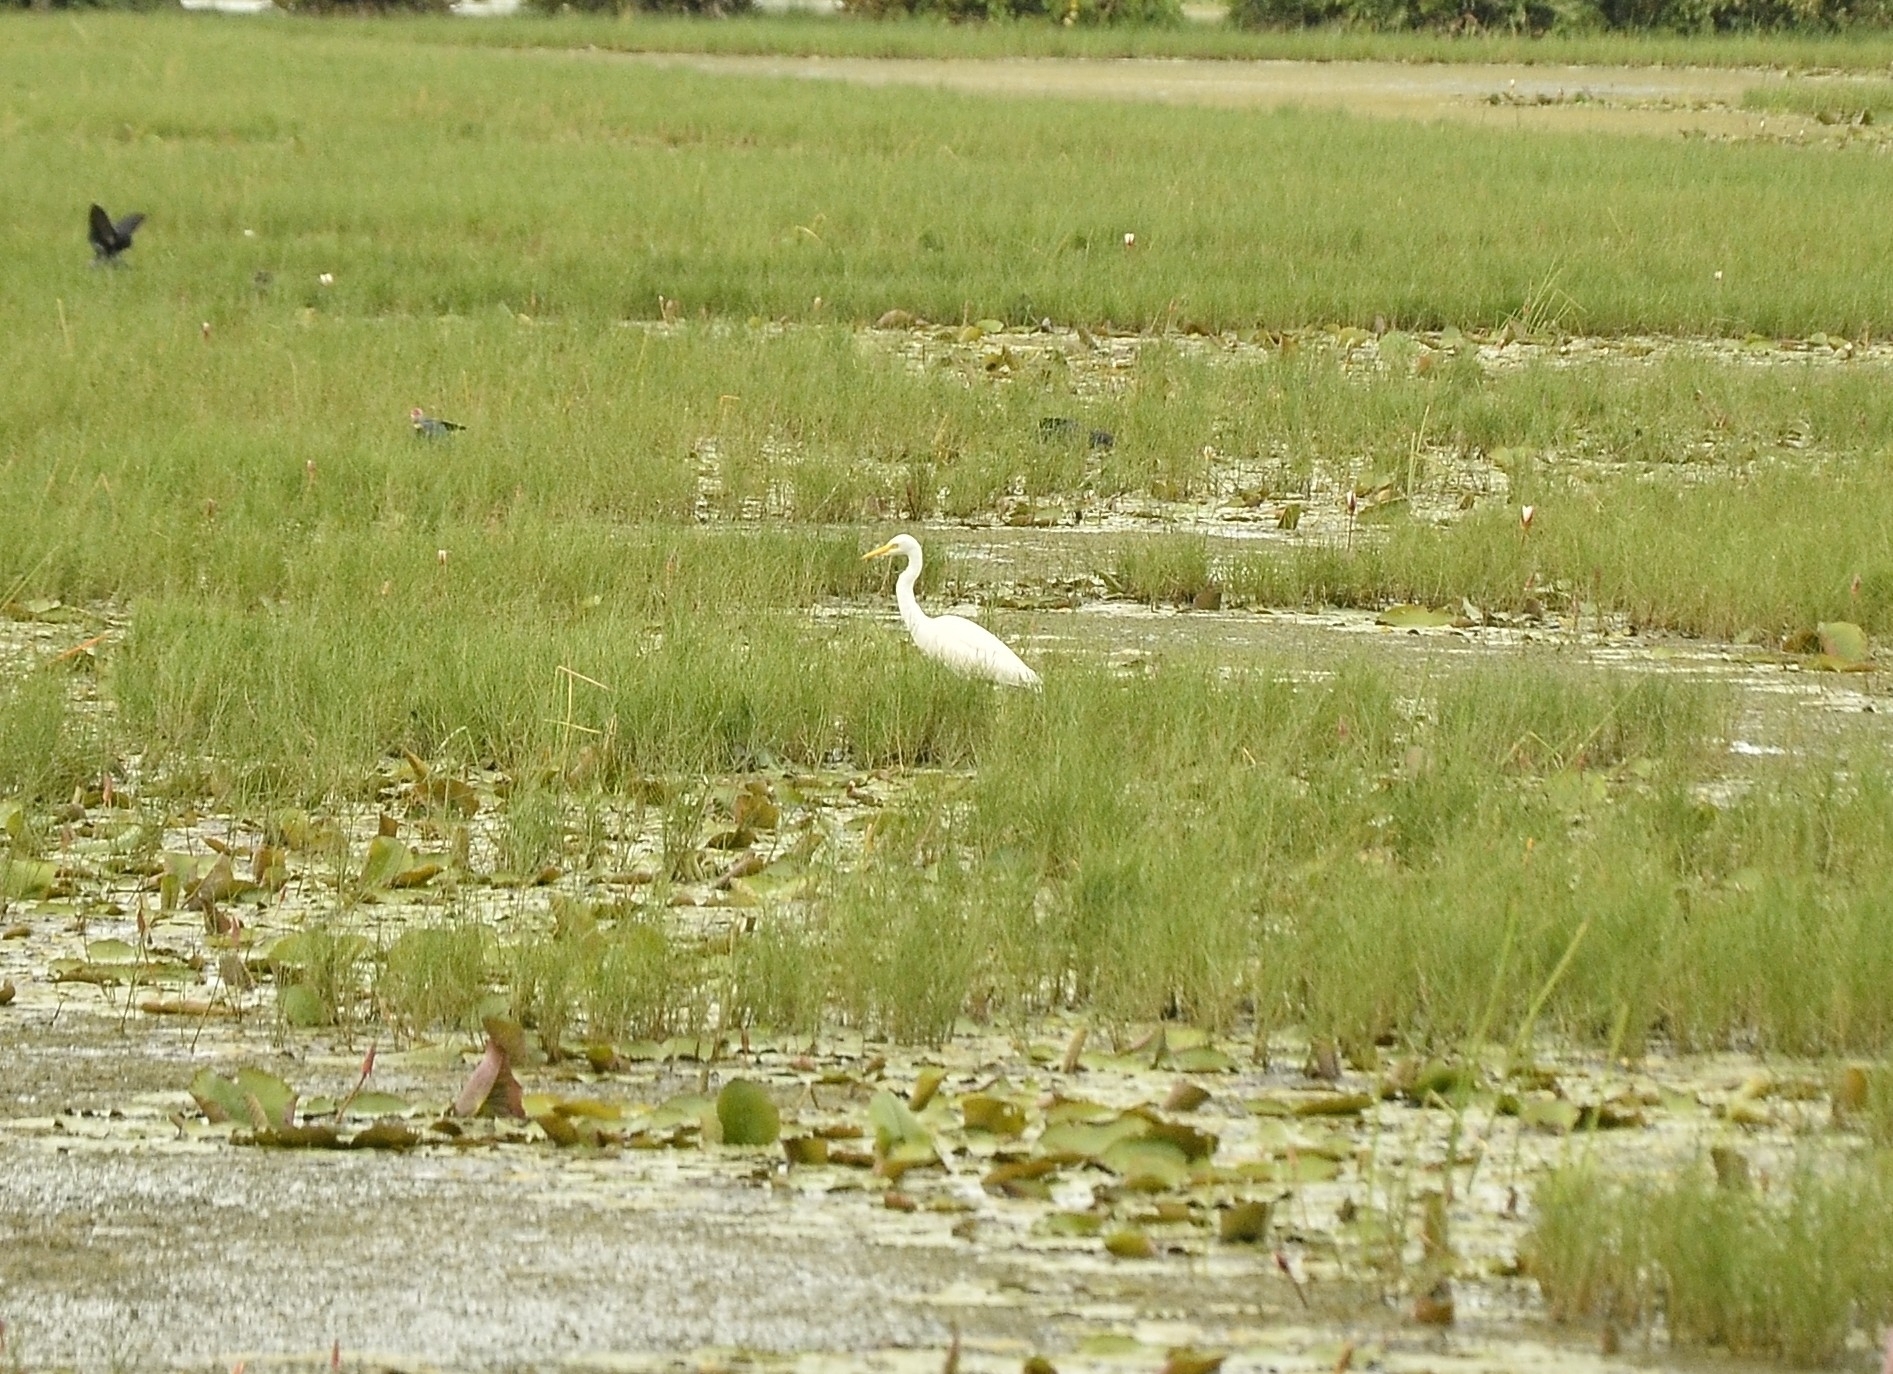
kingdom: Animalia
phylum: Chordata
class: Aves
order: Pelecaniformes
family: Ardeidae
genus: Egretta
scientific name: Egretta intermedia
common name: Intermediate egret
